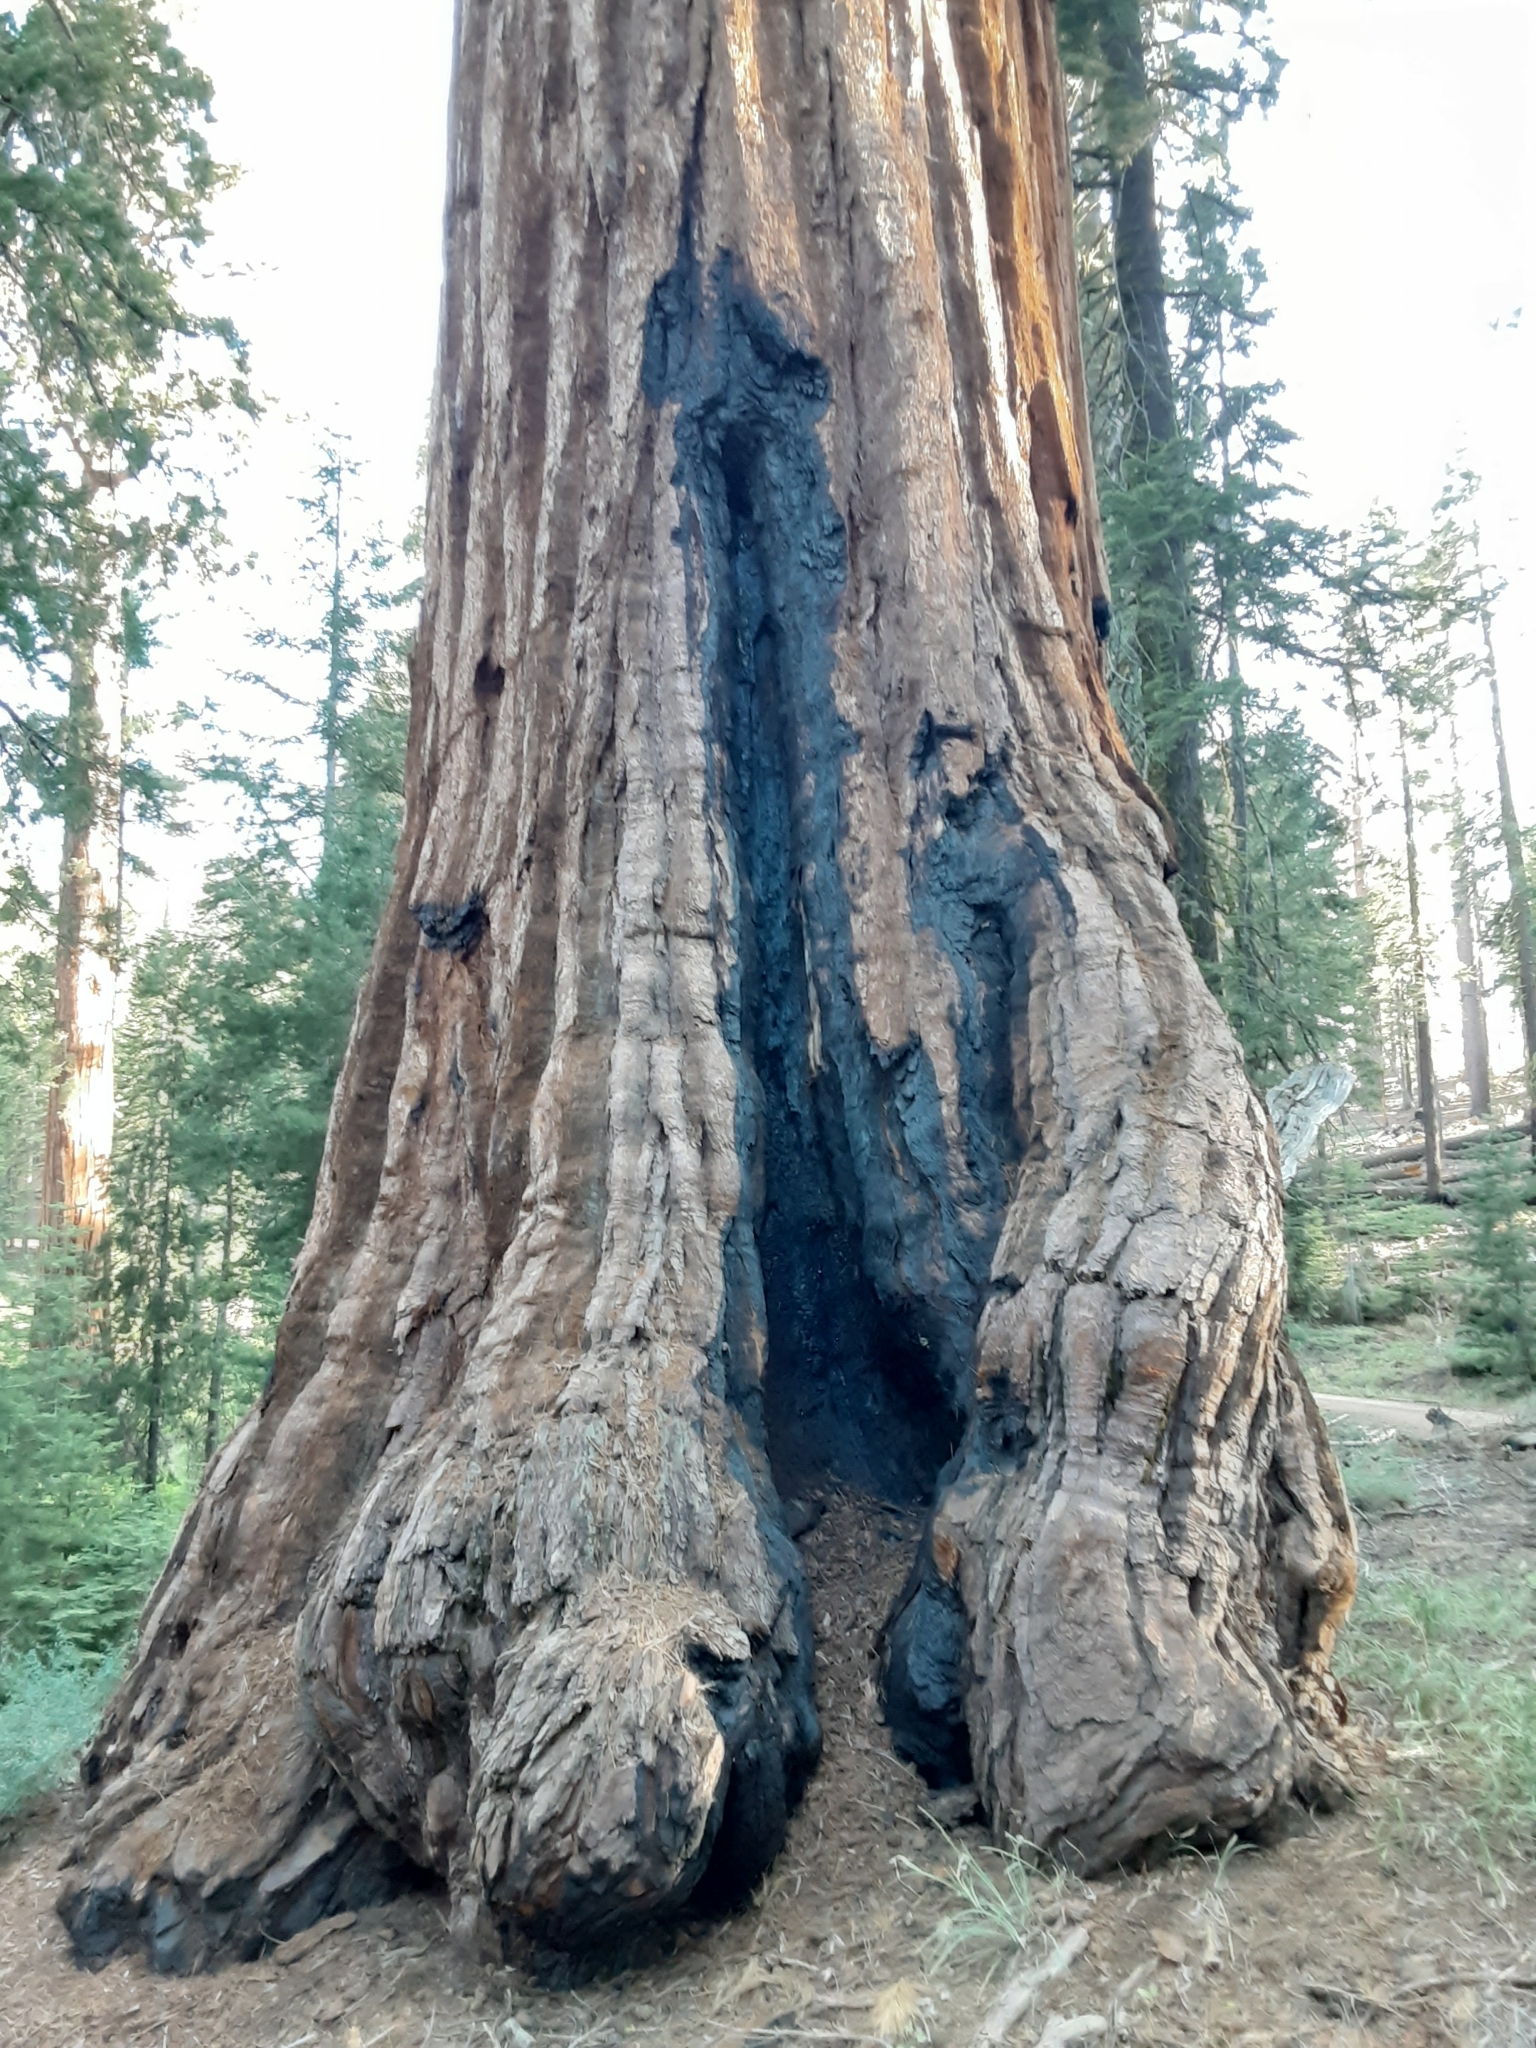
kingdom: Plantae
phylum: Tracheophyta
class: Pinopsida
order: Pinales
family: Cupressaceae
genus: Sequoiadendron
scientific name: Sequoiadendron giganteum
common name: Wellingtonia
